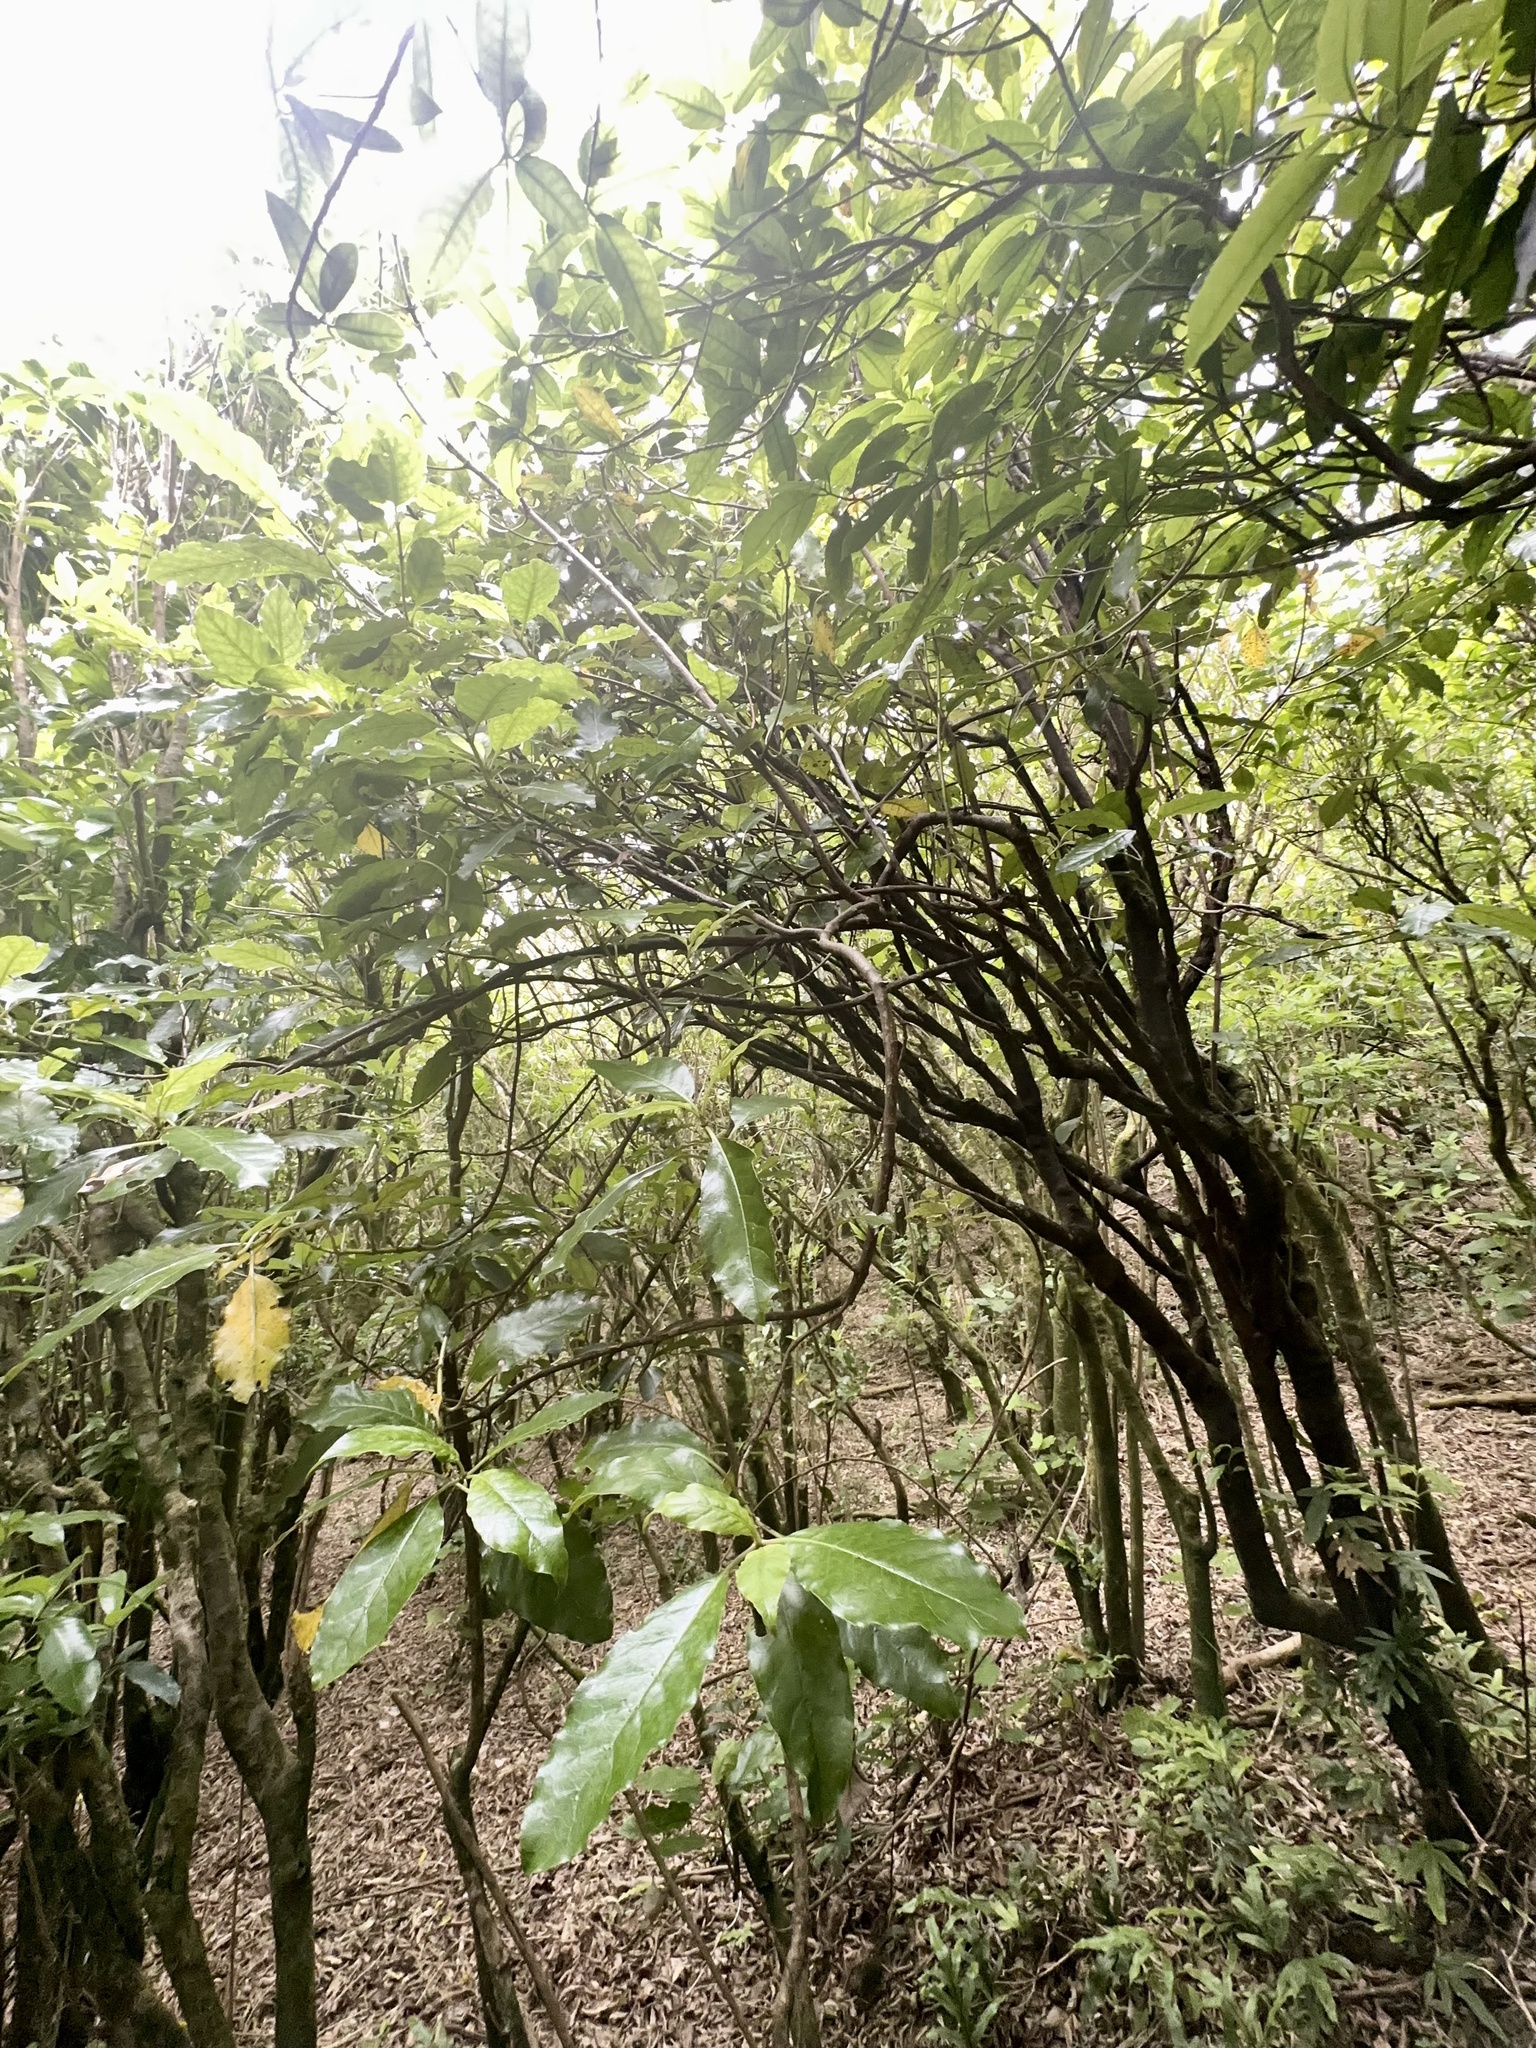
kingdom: Plantae
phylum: Tracheophyta
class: Magnoliopsida
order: Gentianales
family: Rubiaceae
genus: Coprosma
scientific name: Coprosma autumnalis
